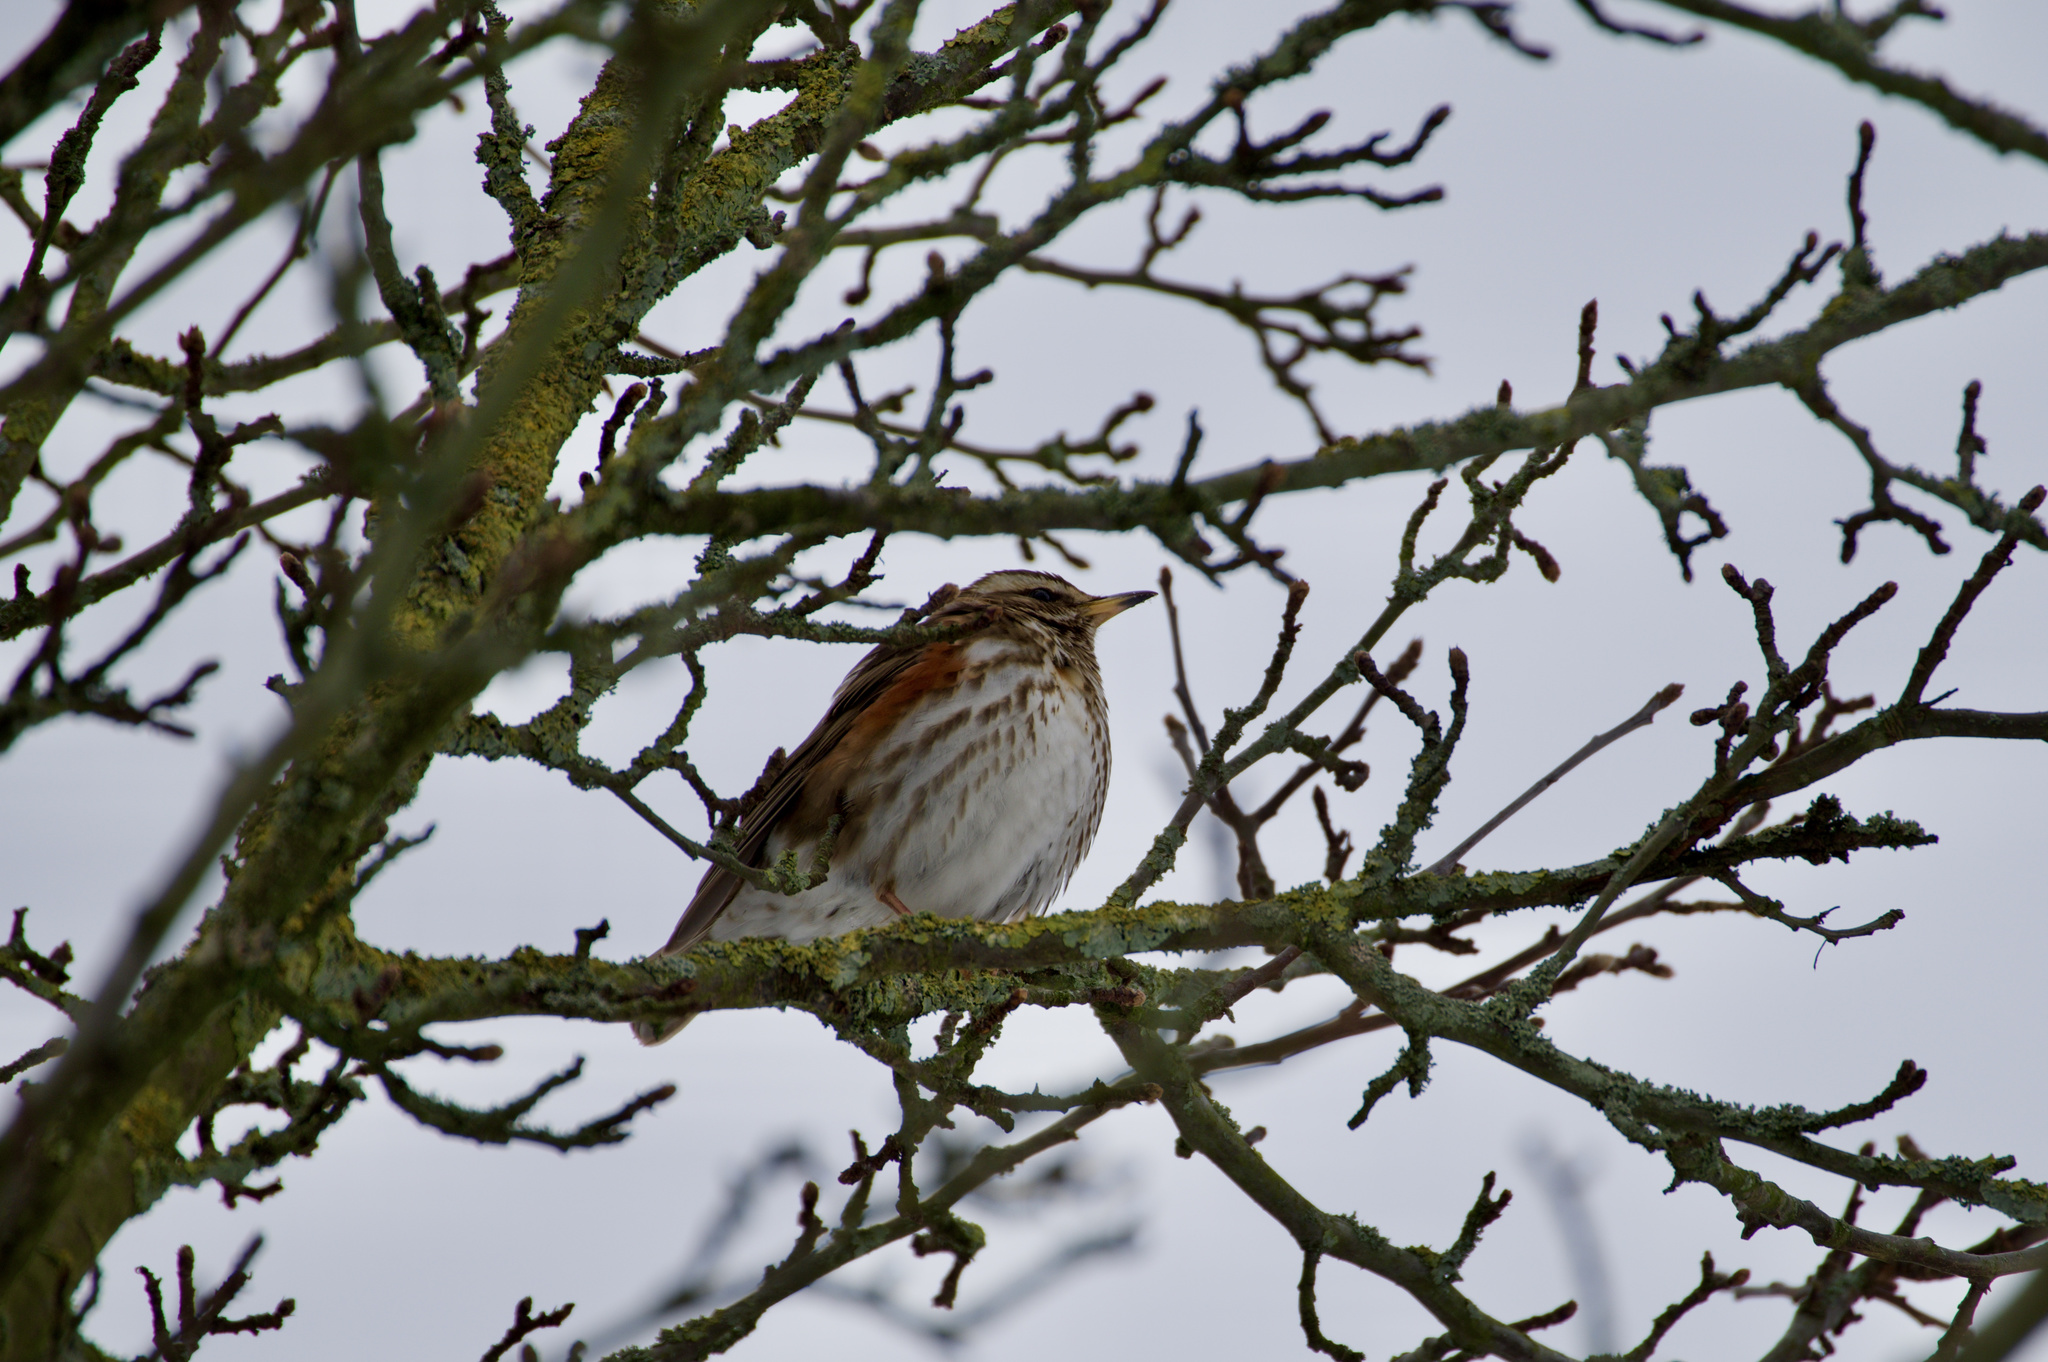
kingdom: Animalia
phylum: Chordata
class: Aves
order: Passeriformes
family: Turdidae
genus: Turdus
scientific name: Turdus iliacus
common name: Redwing
